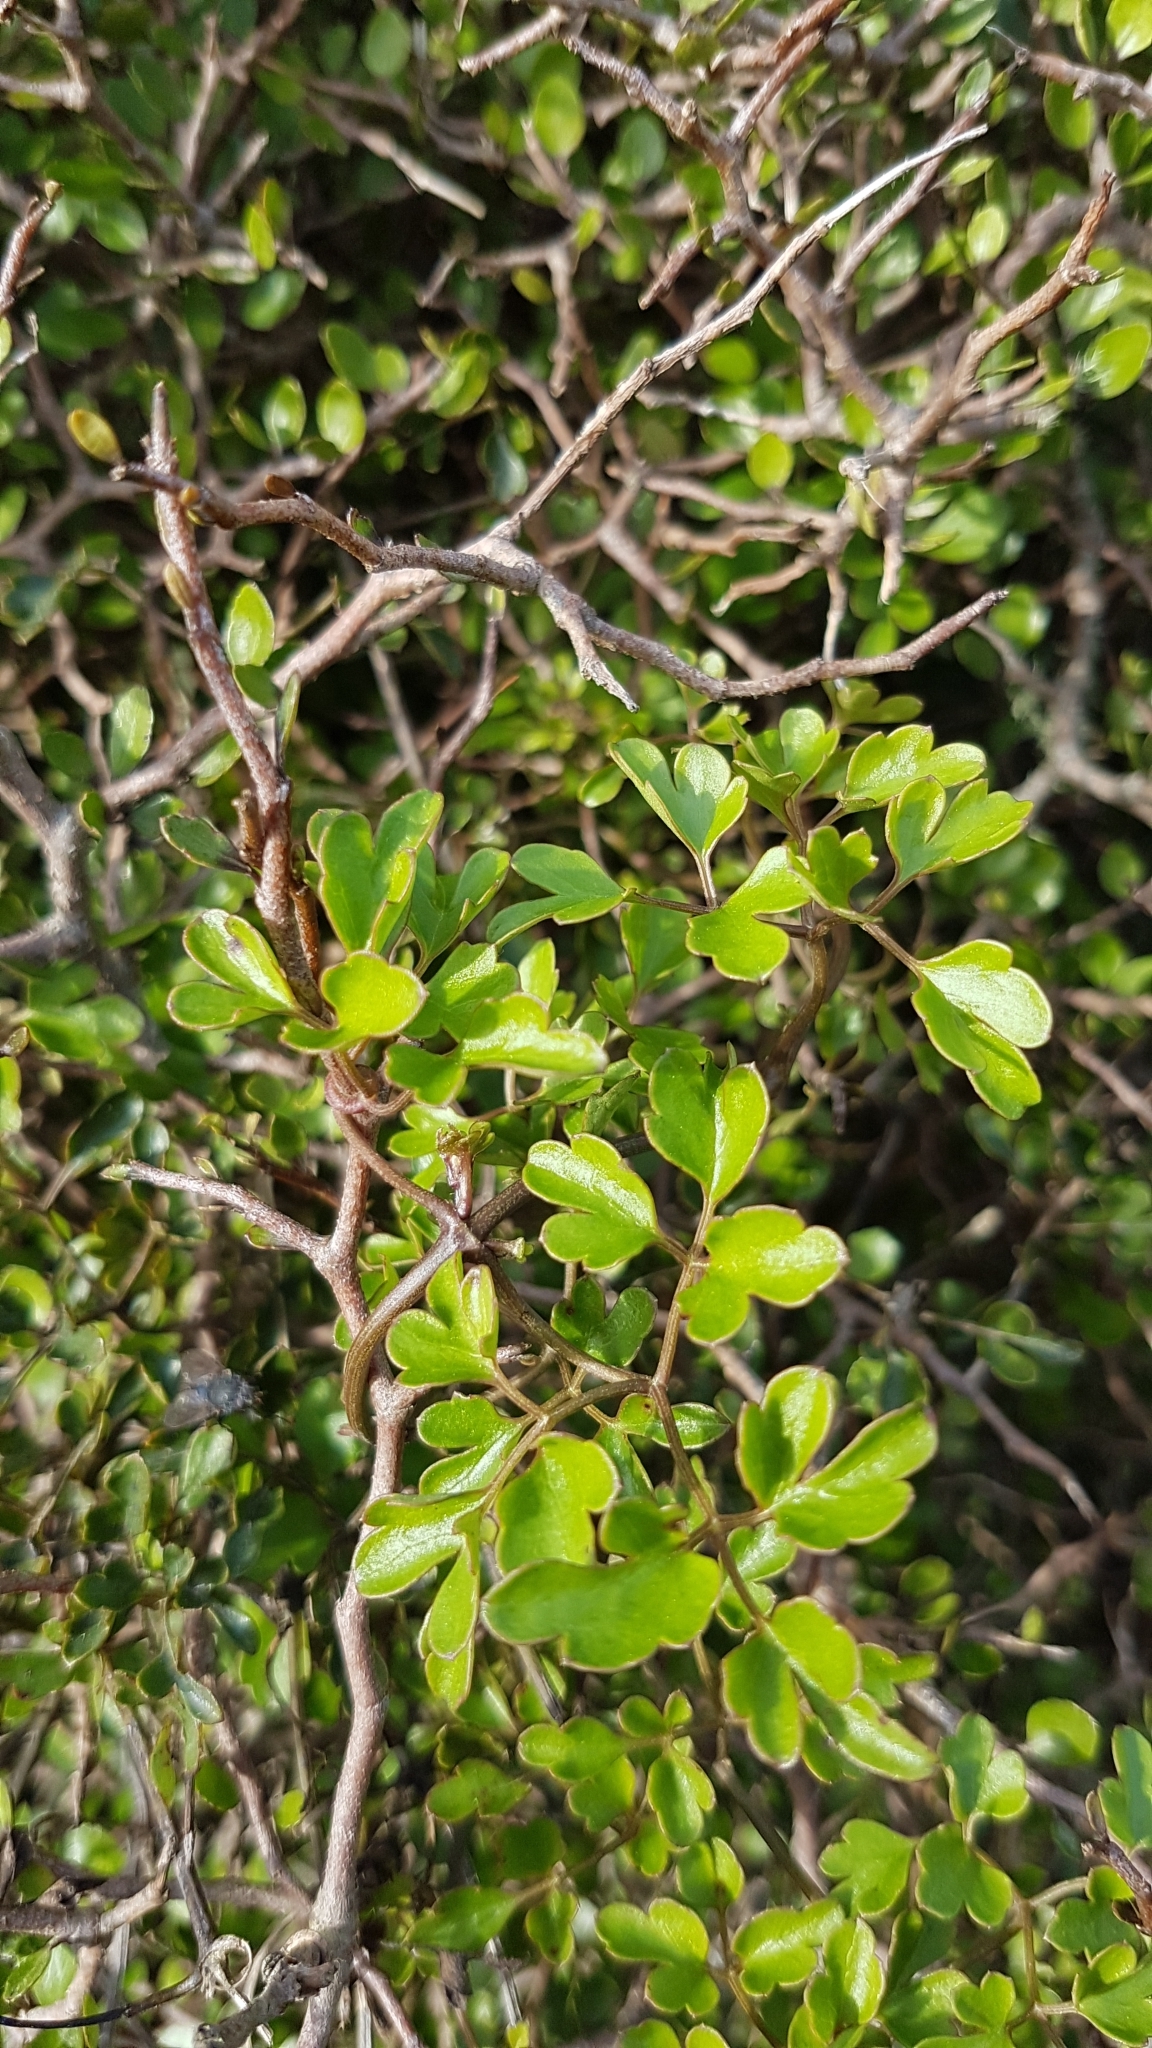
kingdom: Plantae
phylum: Tracheophyta
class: Magnoliopsida
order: Ranunculales
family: Ranunculaceae
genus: Clematis
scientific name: Clematis forsteri
